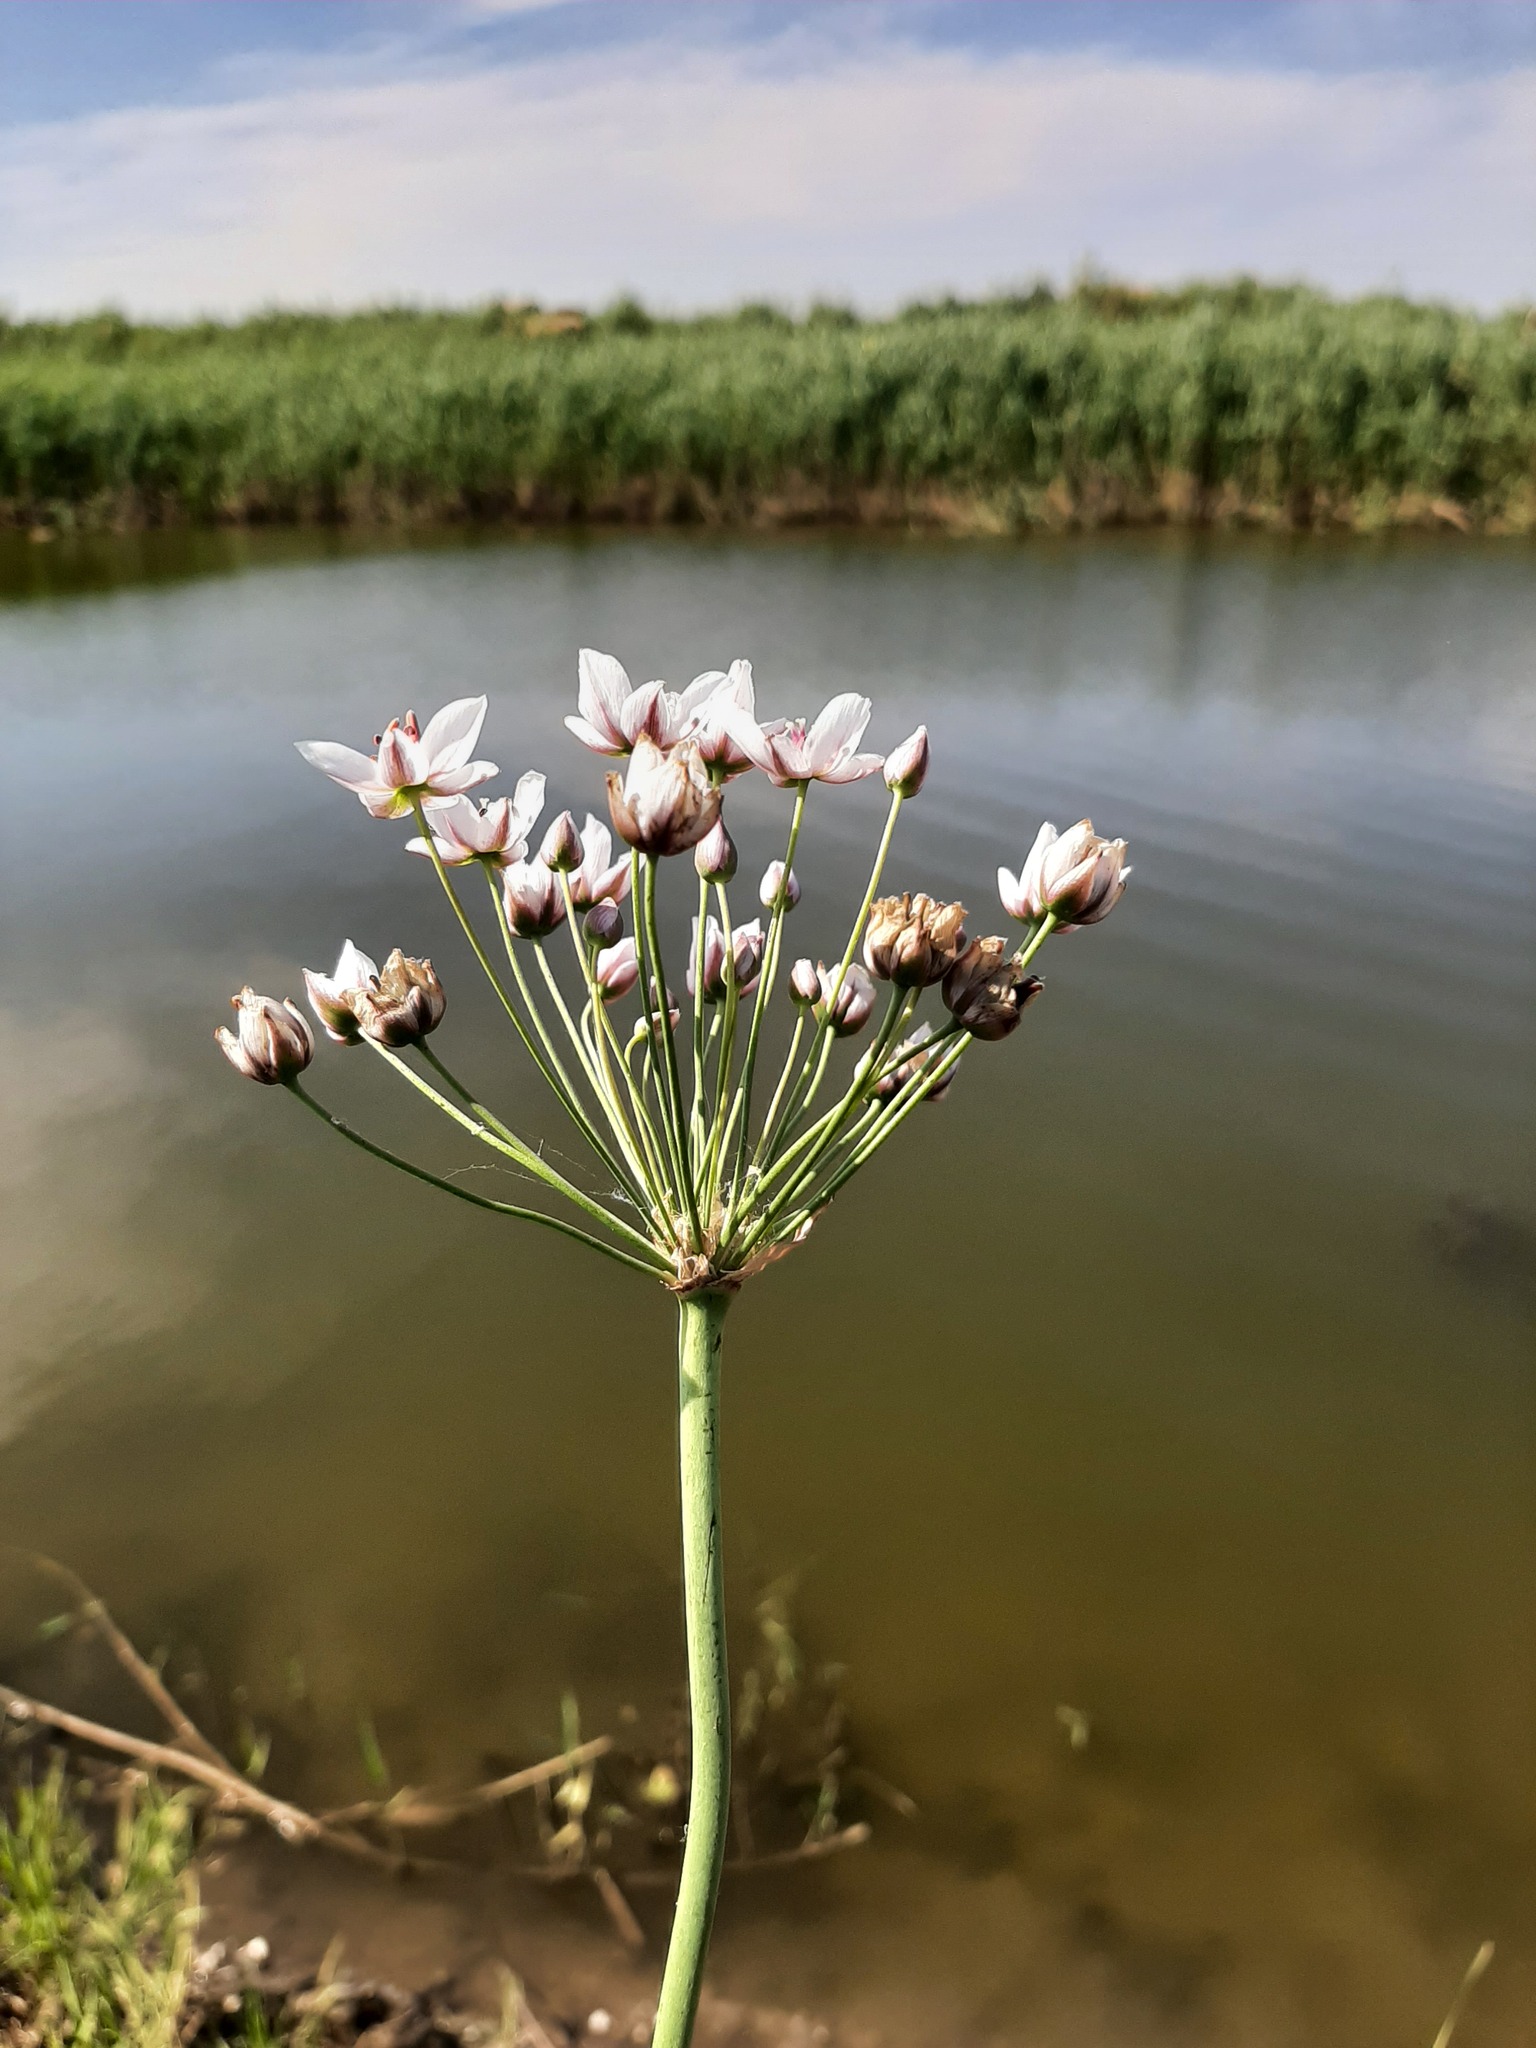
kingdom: Plantae
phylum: Tracheophyta
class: Liliopsida
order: Alismatales
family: Butomaceae
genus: Butomus
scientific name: Butomus umbellatus
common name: Flowering-rush
